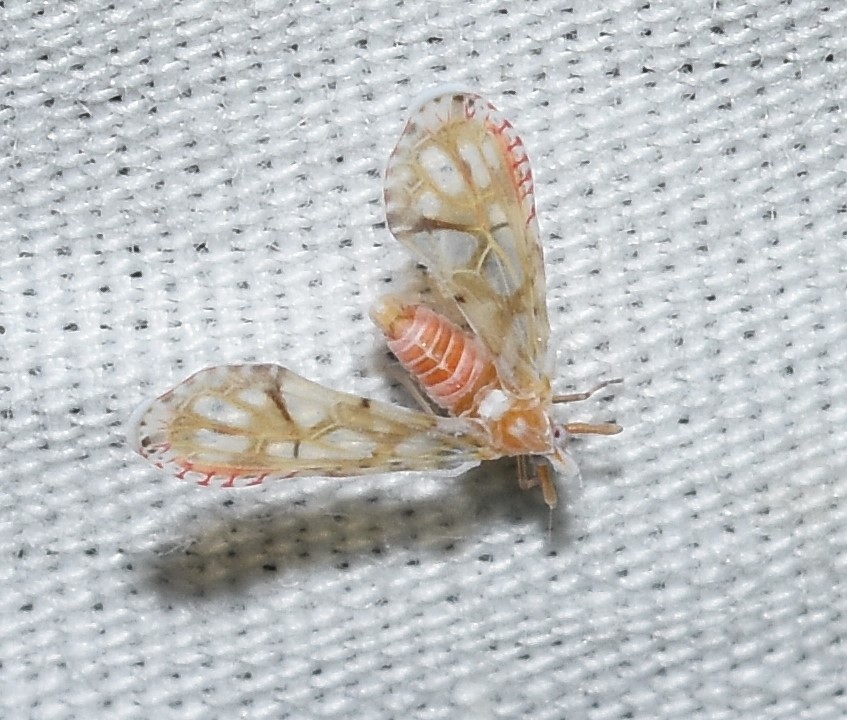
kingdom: Animalia
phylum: Arthropoda
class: Insecta
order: Hemiptera
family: Derbidae
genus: Anotia
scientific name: Anotia kirkaldyi
